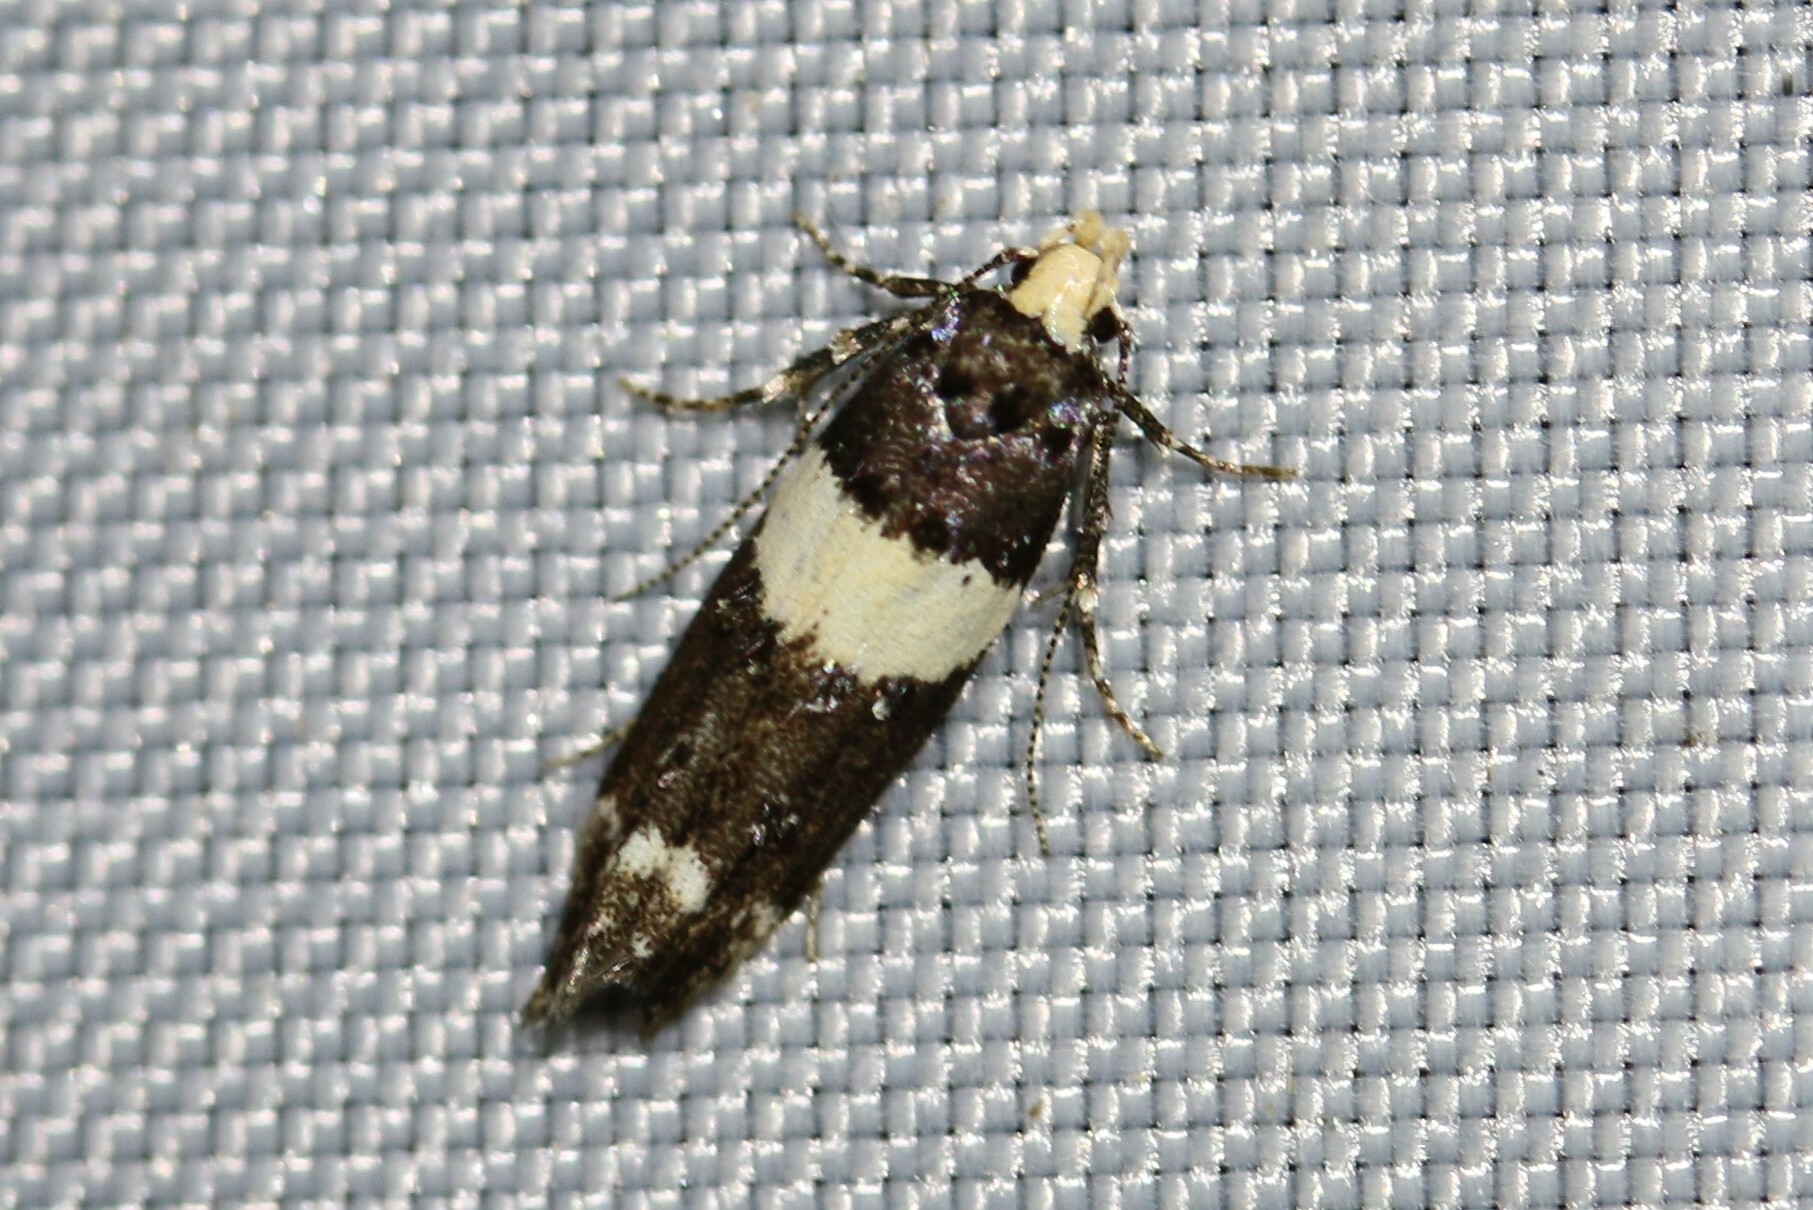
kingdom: Animalia
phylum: Arthropoda
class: Insecta
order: Lepidoptera
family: Gelechiidae
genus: Recurvaria
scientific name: Recurvaria leucatella
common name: White-barred groundling
